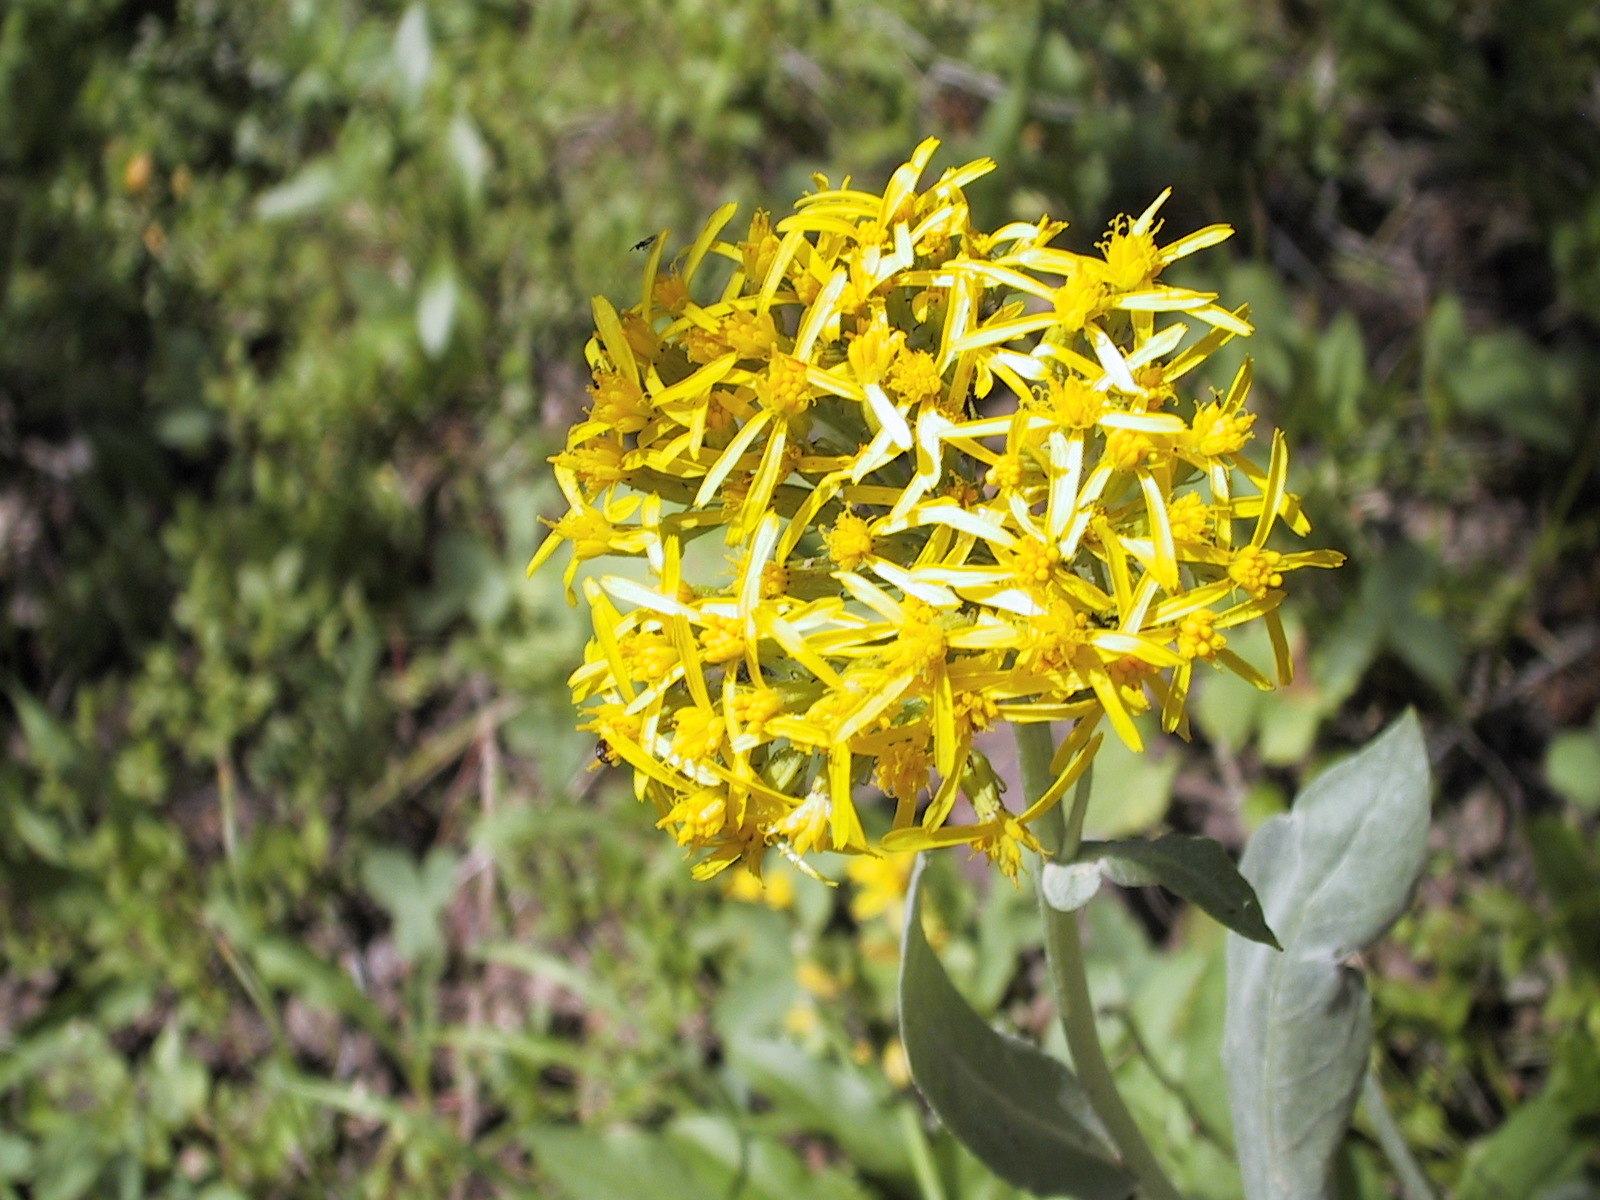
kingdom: Plantae
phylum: Tracheophyta
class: Magnoliopsida
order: Asterales
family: Asteraceae
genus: Senecio
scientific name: Senecio atratus
